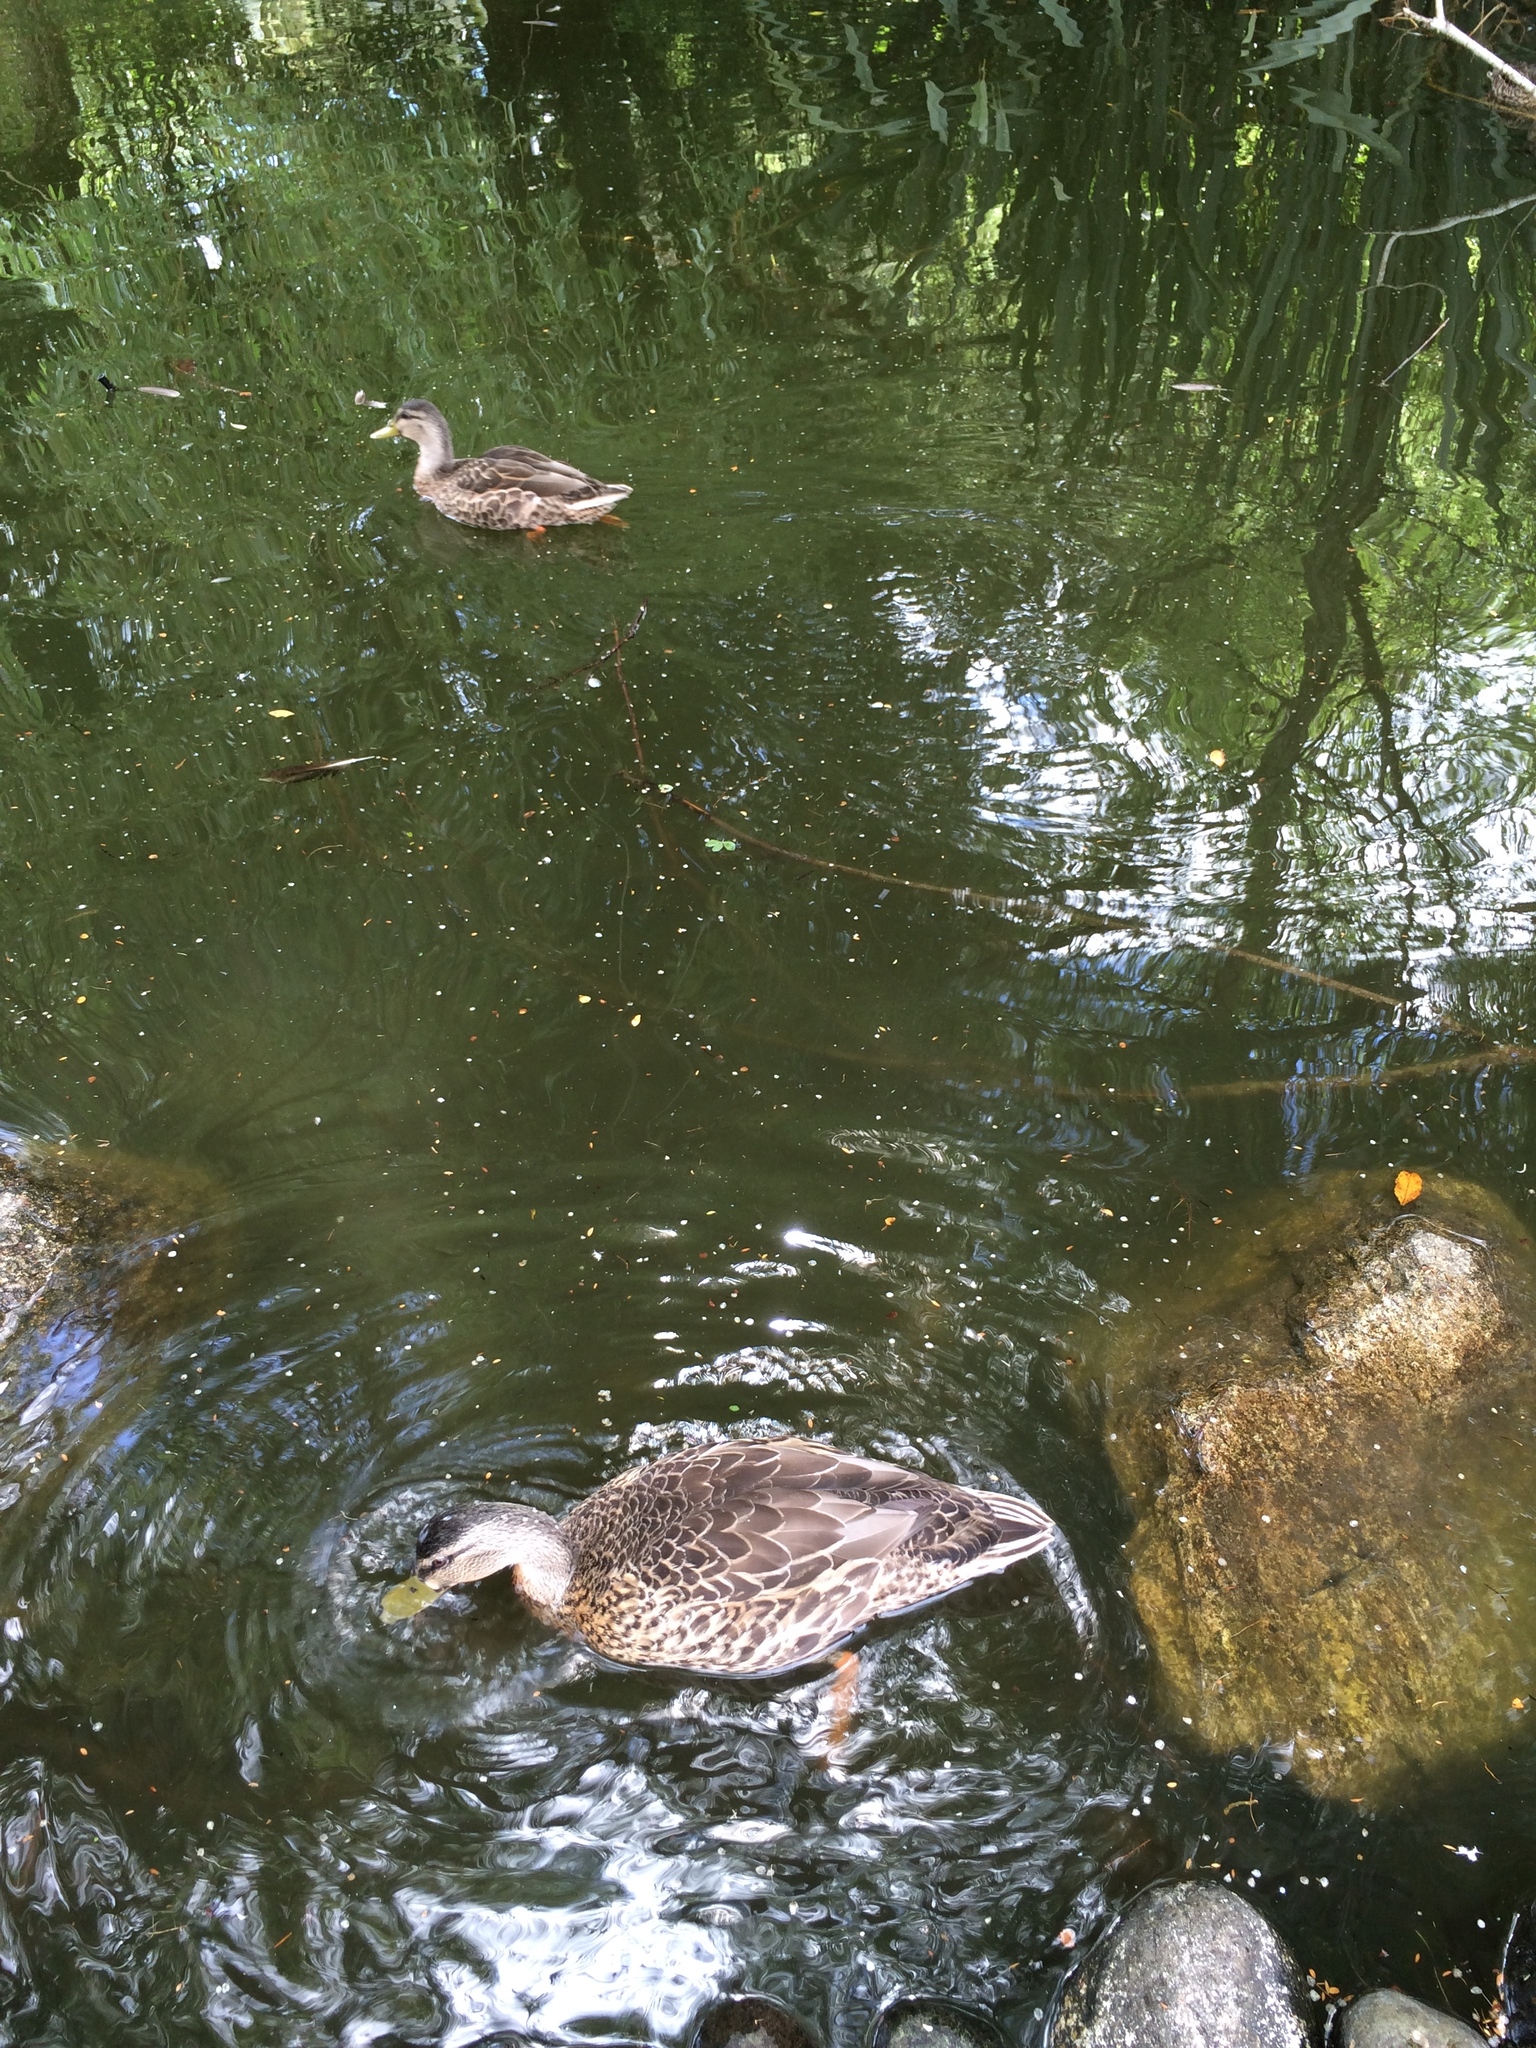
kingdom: Animalia
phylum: Chordata
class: Aves
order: Anseriformes
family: Anatidae
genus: Anas
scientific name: Anas
